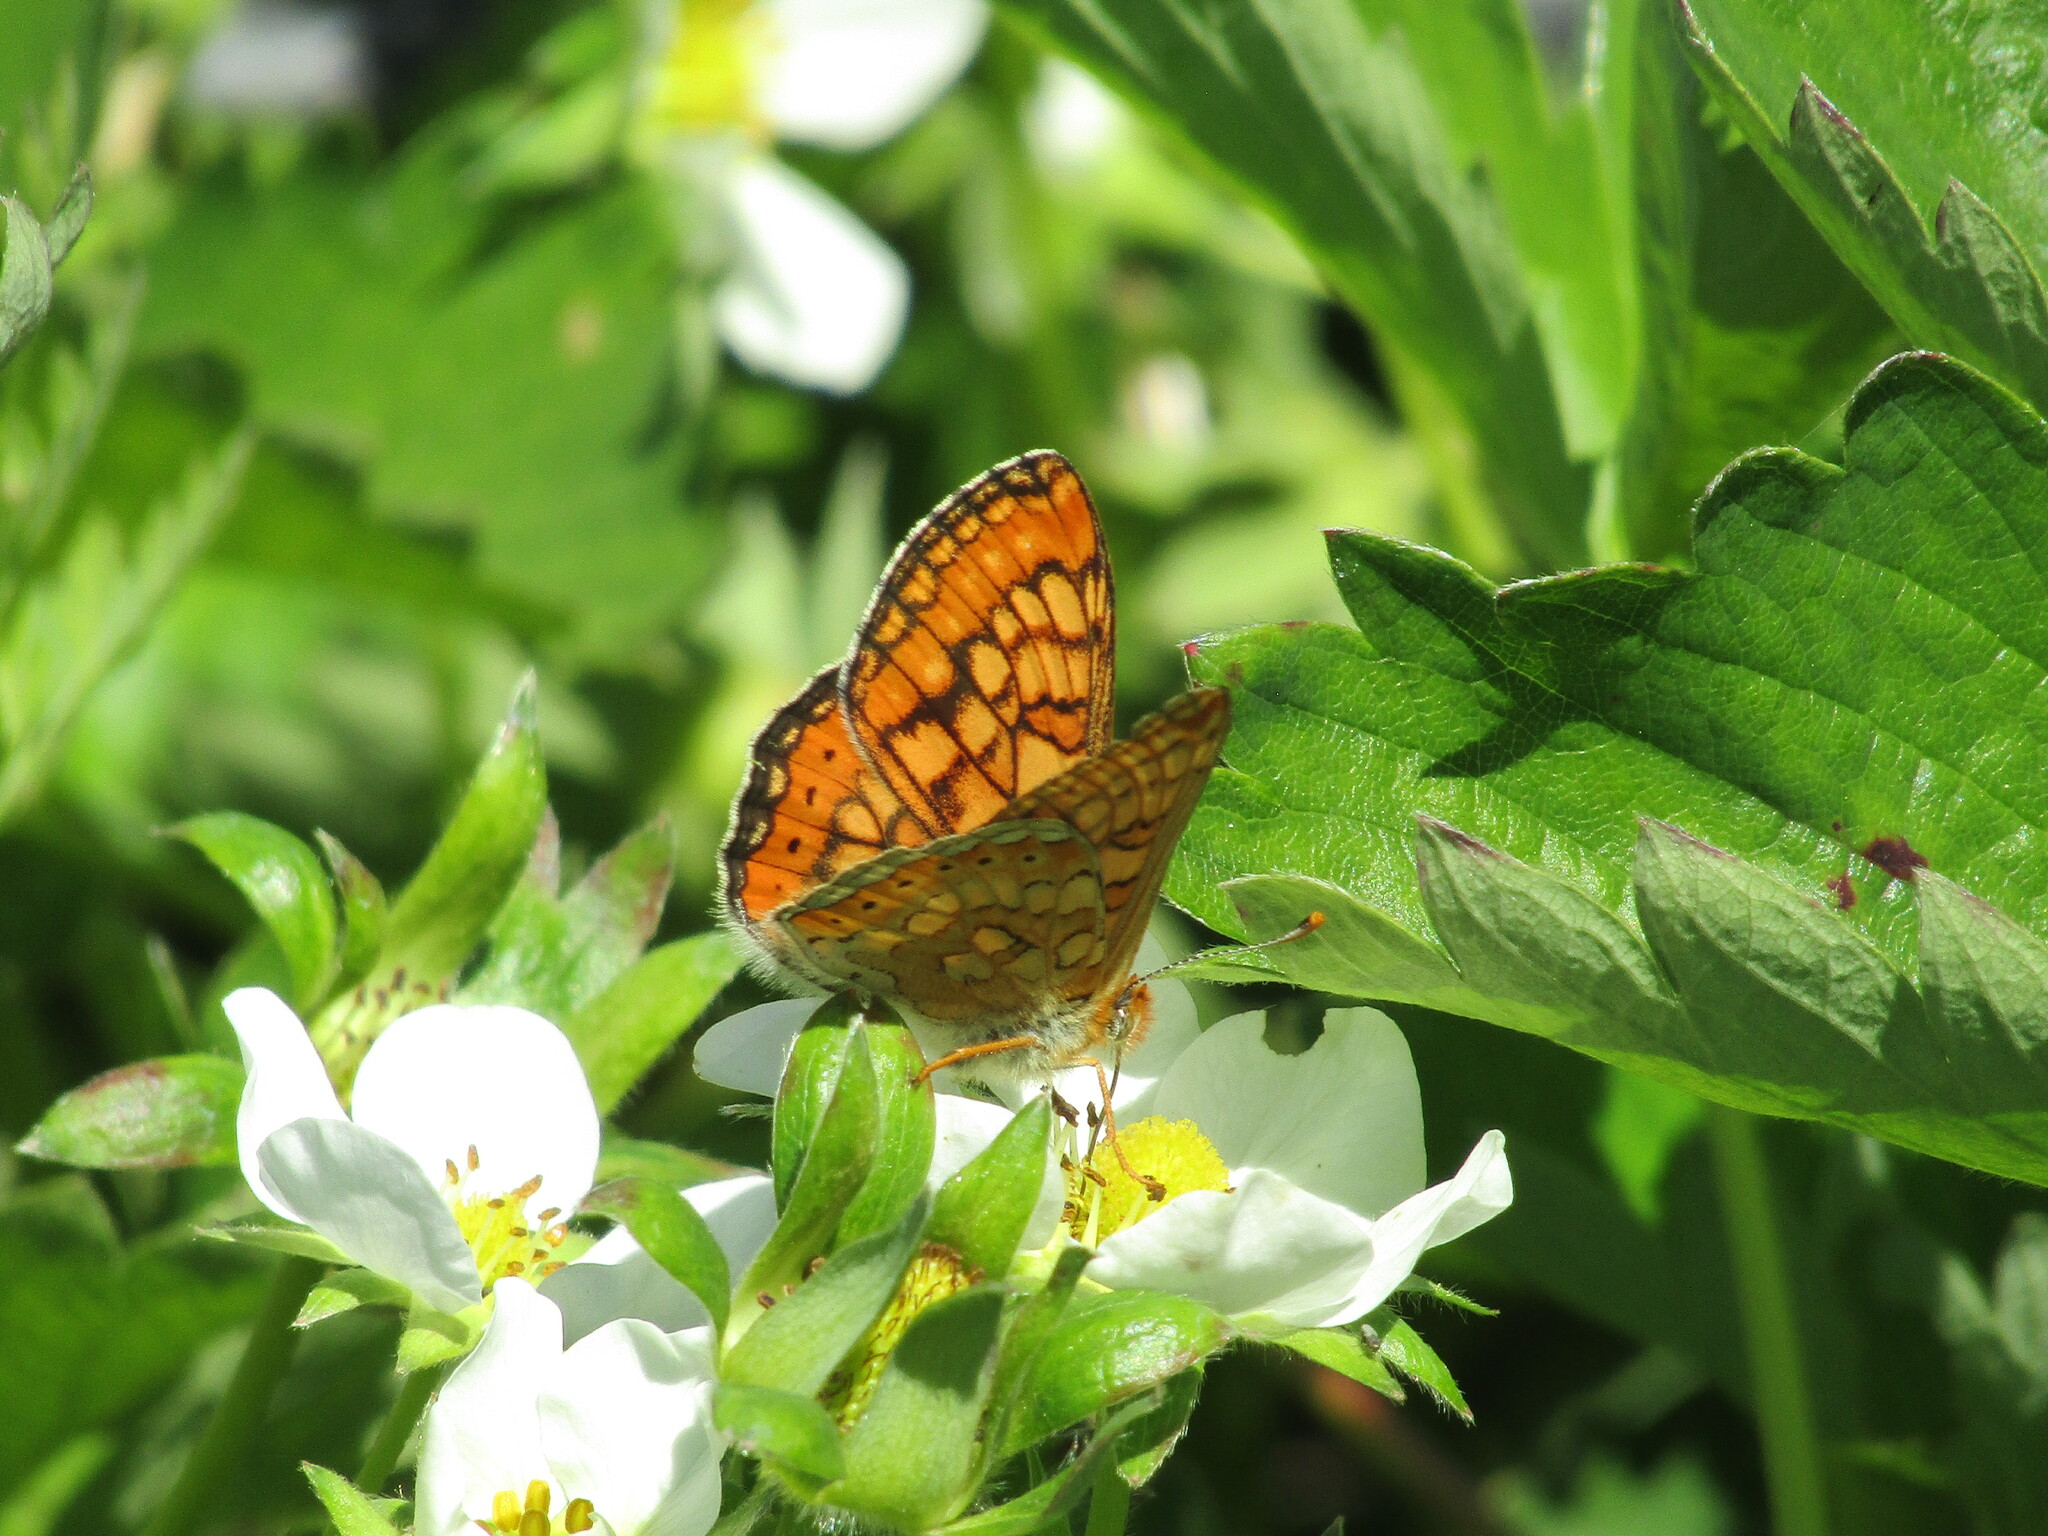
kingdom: Animalia
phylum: Arthropoda
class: Insecta
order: Lepidoptera
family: Nymphalidae
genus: Euphydryas
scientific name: Euphydryas aurinia
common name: Marsh fritillary
